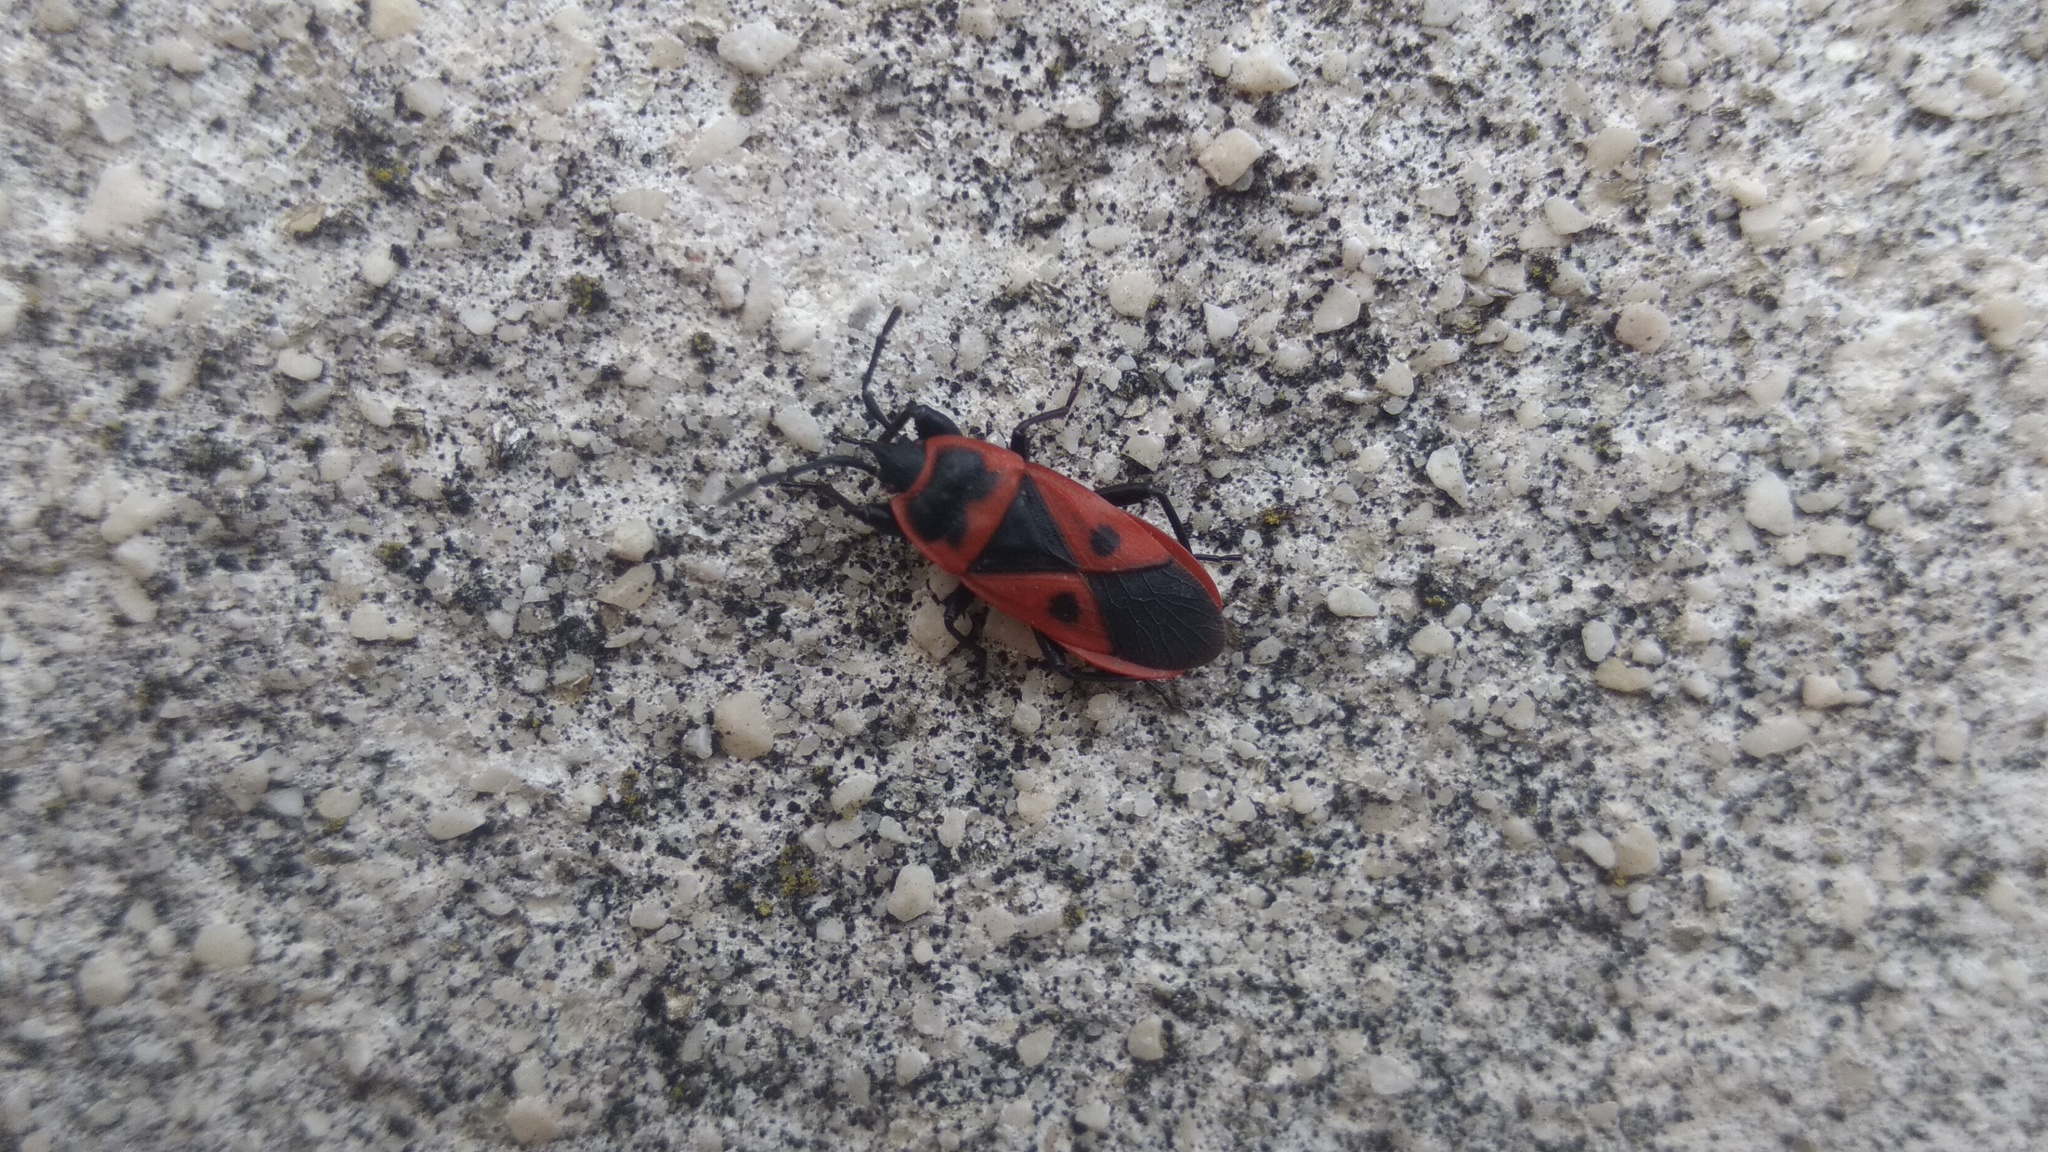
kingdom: Animalia
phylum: Arthropoda
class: Insecta
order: Hemiptera
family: Pyrrhocoridae
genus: Scantius
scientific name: Scantius aegyptius
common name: Red bug
